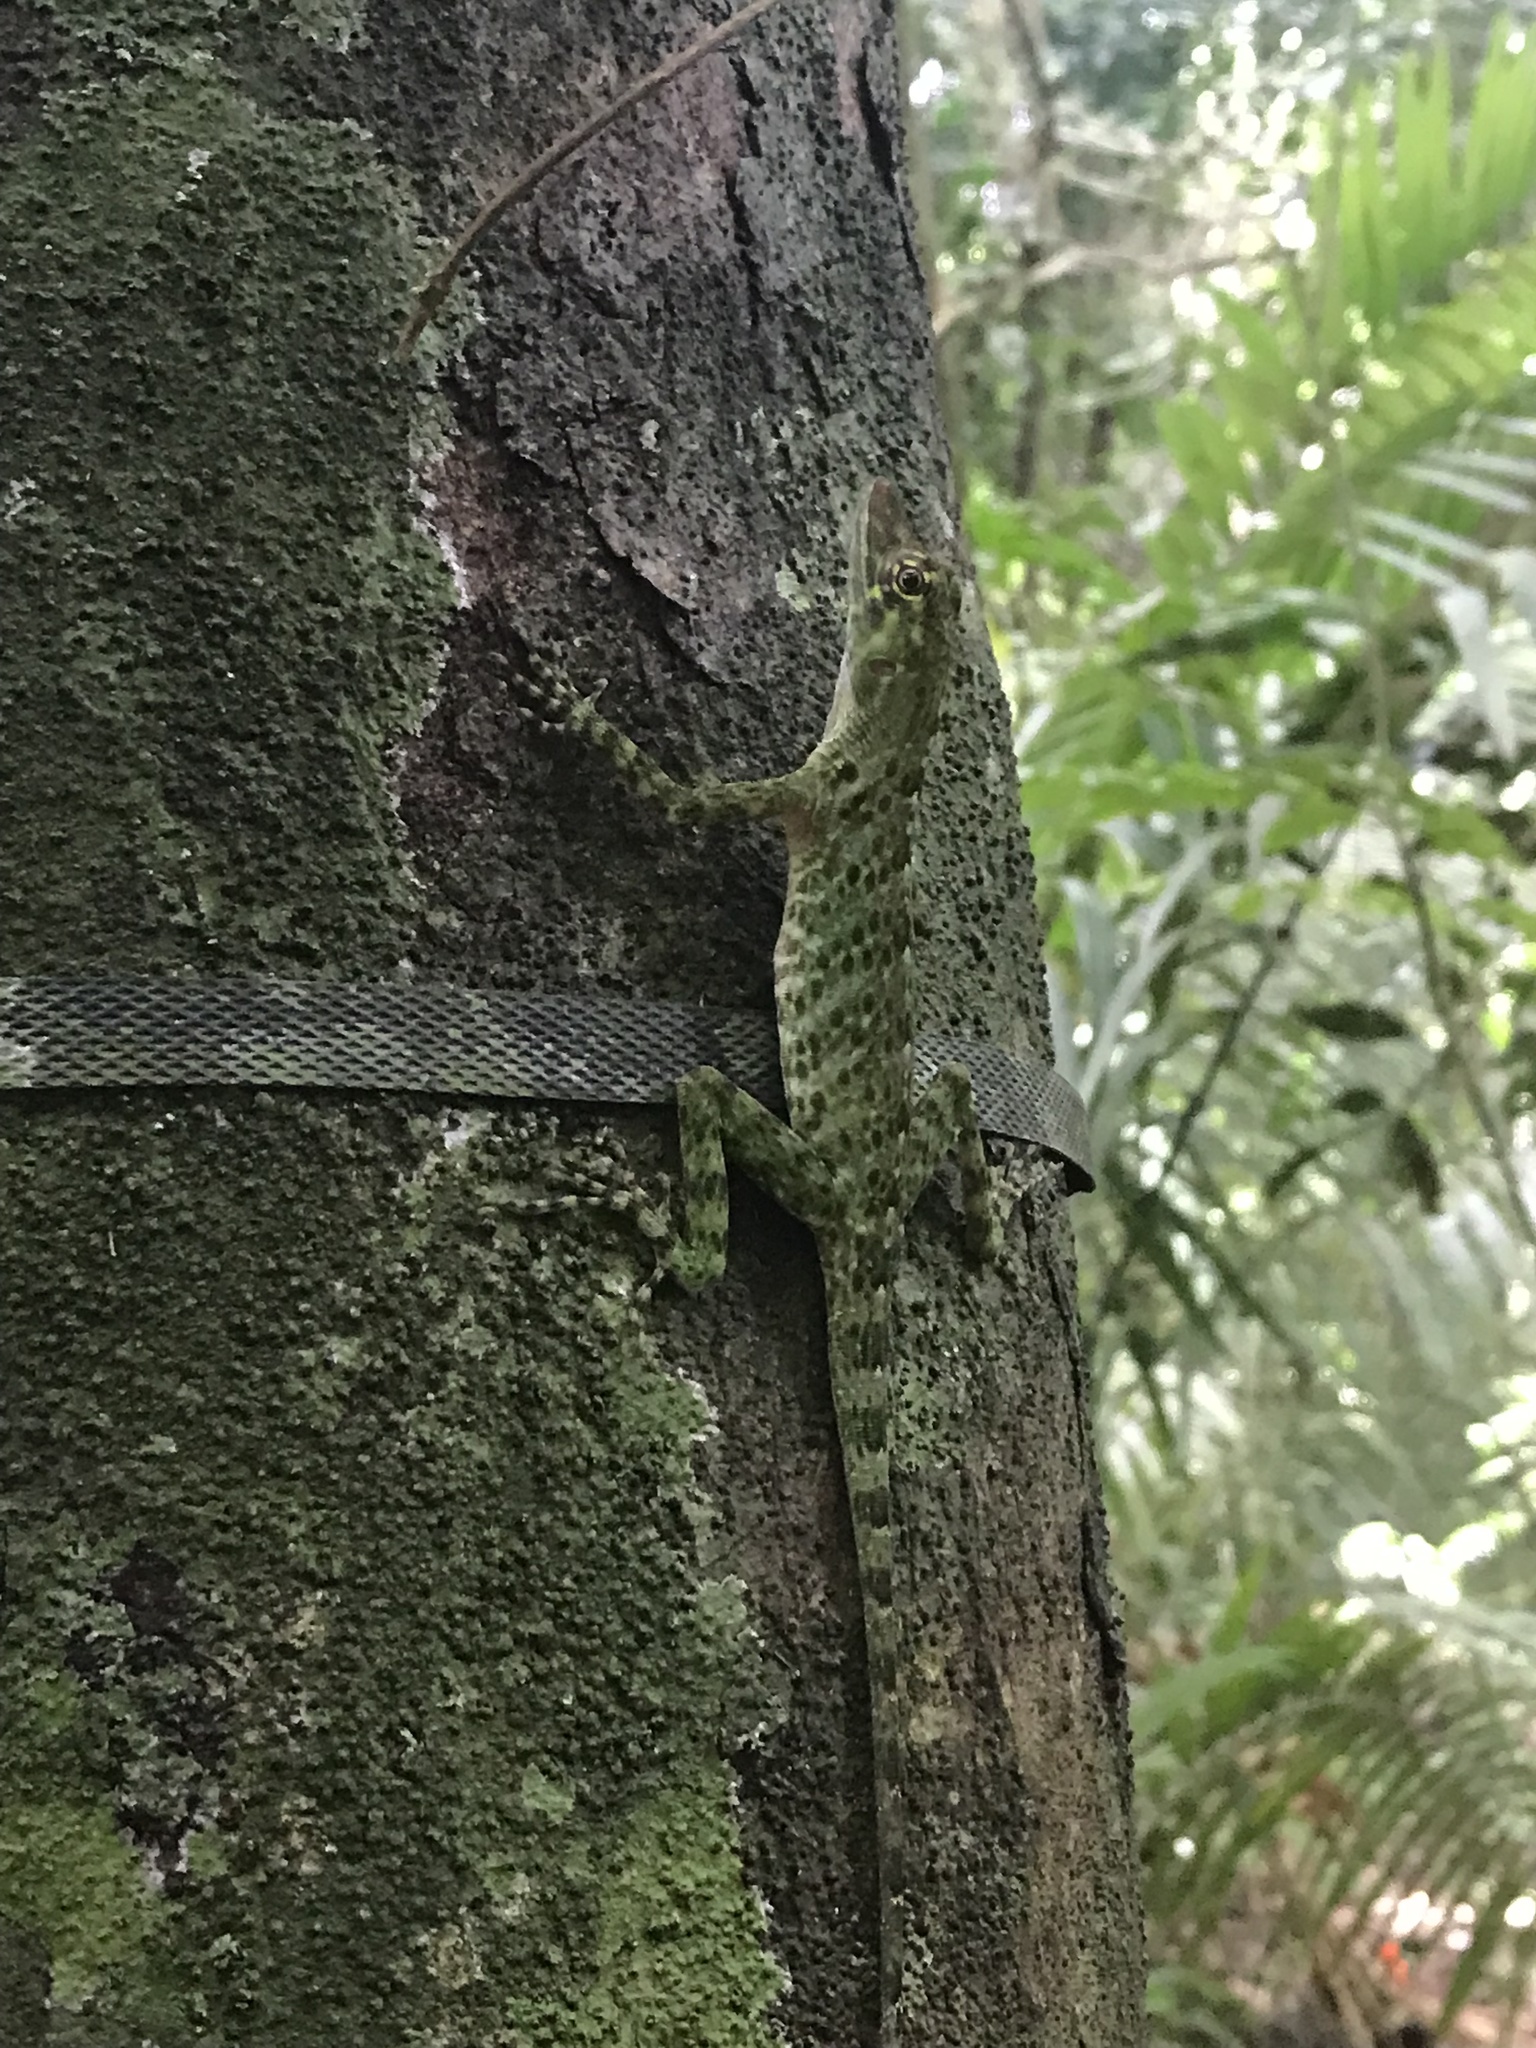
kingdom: Animalia
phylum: Chordata
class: Squamata
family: Dactyloidae
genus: Anolis
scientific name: Anolis frenatus
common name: Bridled anole
